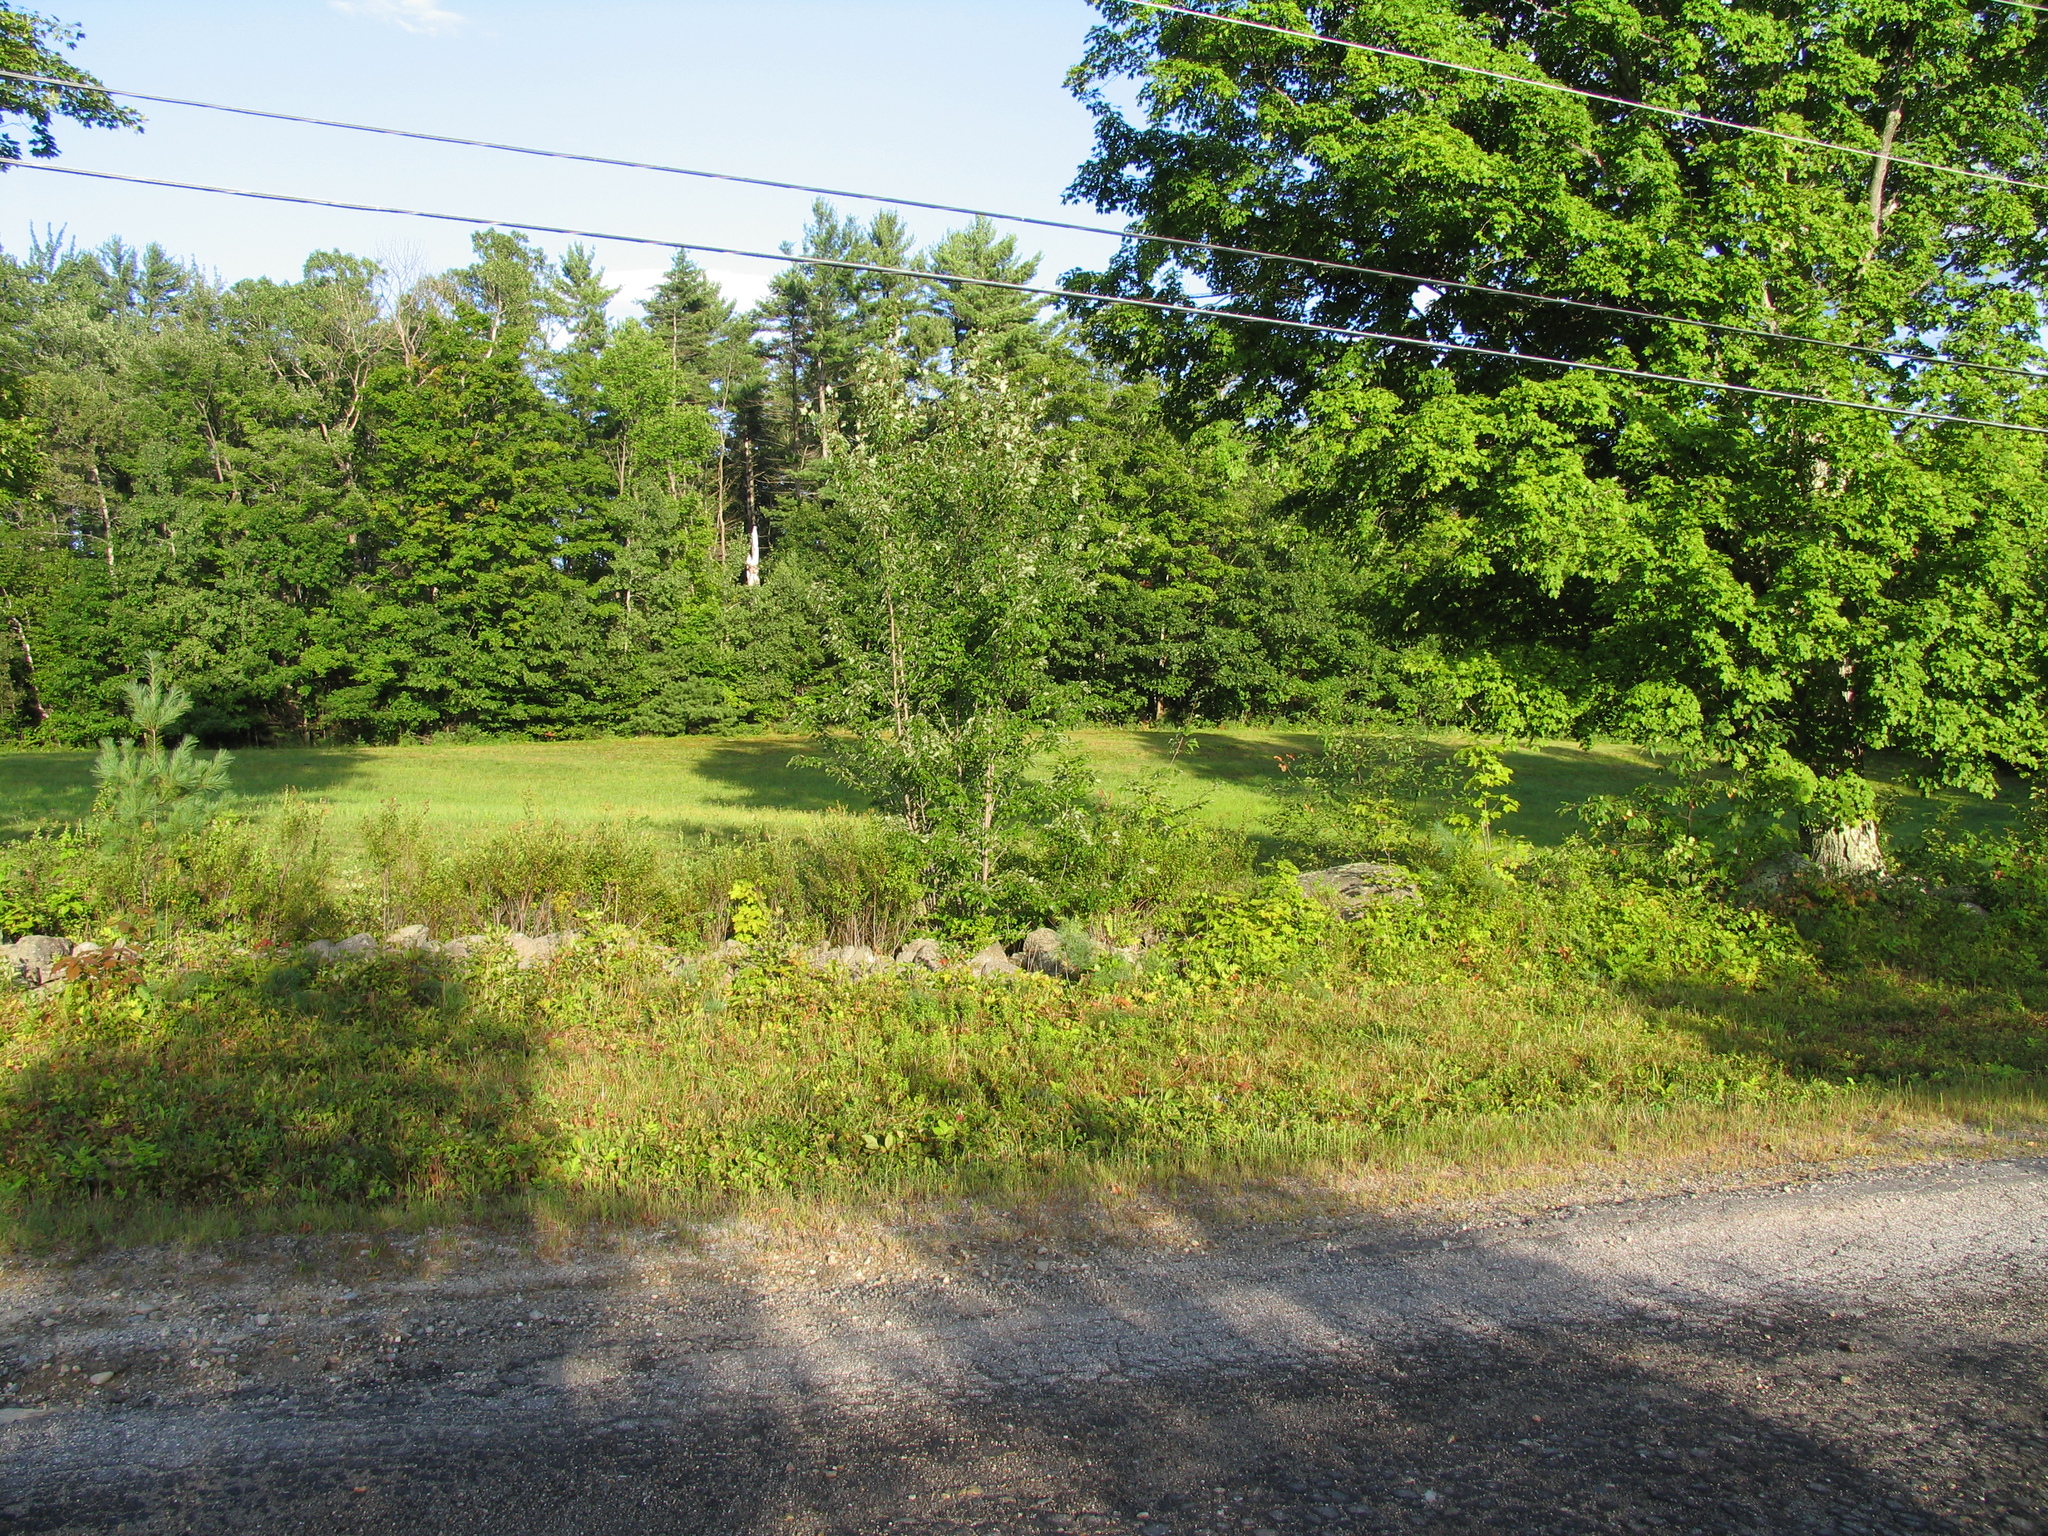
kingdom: Plantae
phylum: Tracheophyta
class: Pinopsida
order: Pinales
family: Pinaceae
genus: Pinus
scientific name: Pinus strobus
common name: Weymouth pine
